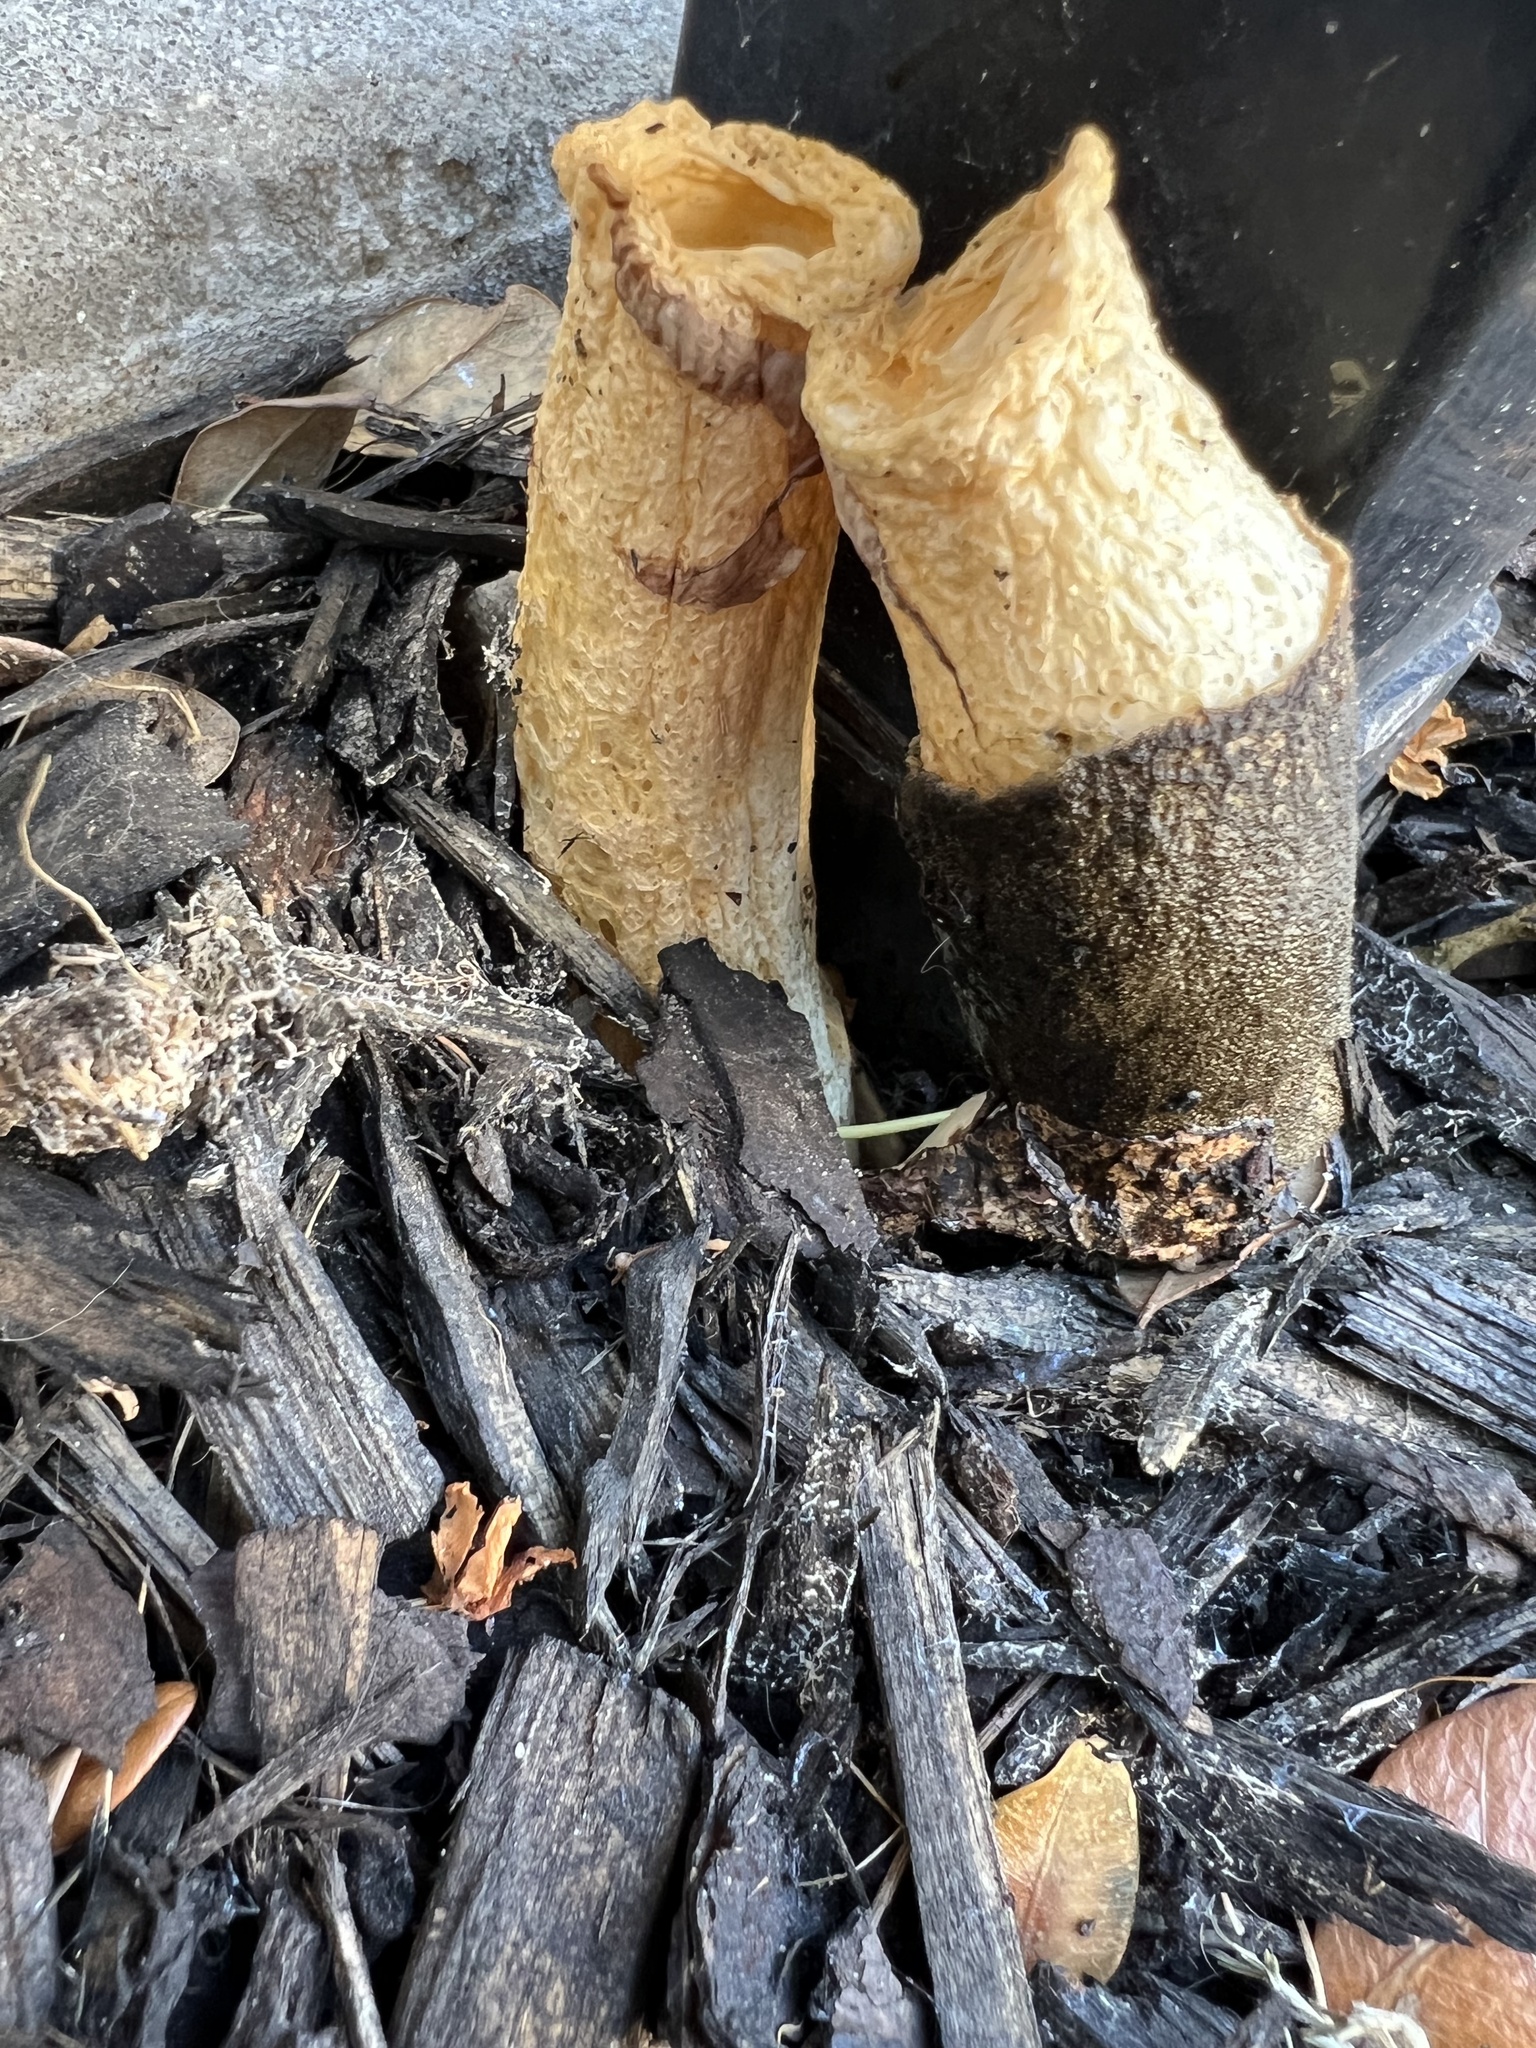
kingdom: Fungi
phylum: Basidiomycota
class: Agaricomycetes
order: Phallales
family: Phallaceae
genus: Phallus
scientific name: Phallus ravenelii
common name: Ravenel's stinkhorn
